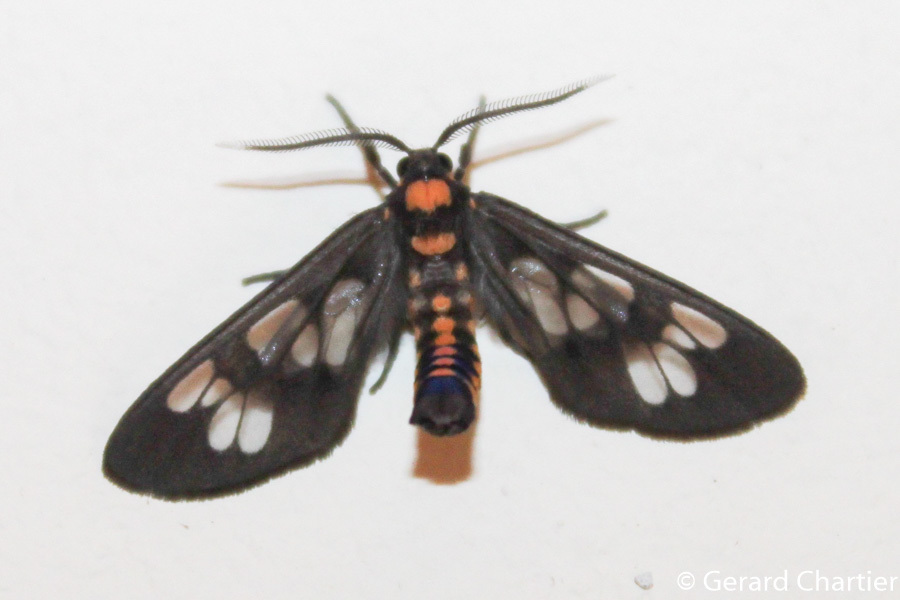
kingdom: Animalia
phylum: Arthropoda
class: Insecta
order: Lepidoptera
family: Erebidae
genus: Eressa
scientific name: Eressa confinis
